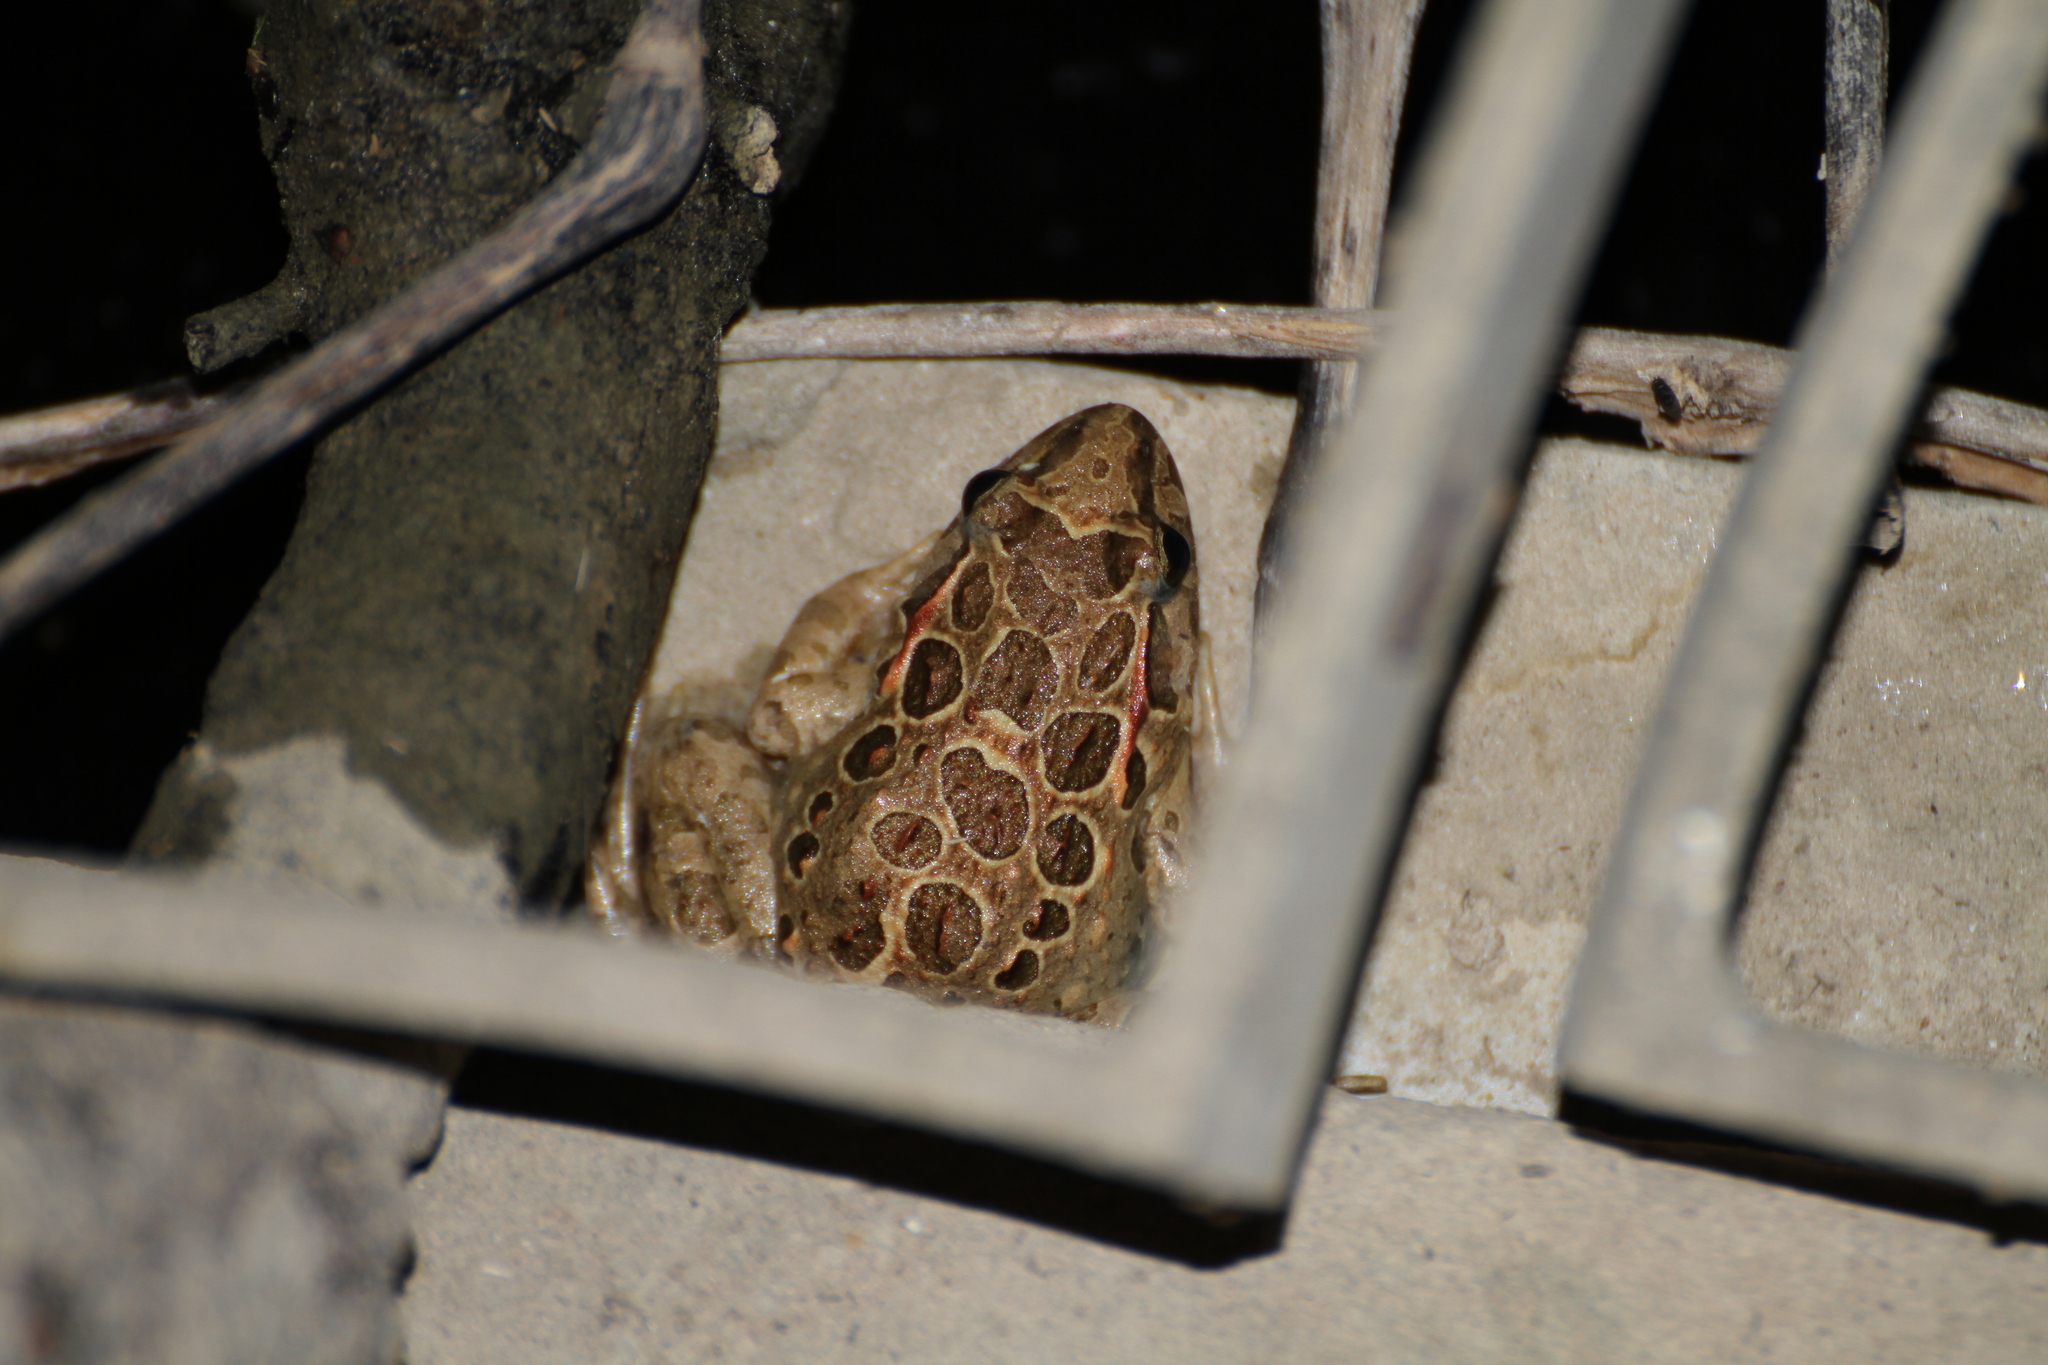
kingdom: Animalia
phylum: Chordata
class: Amphibia
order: Anura
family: Alytidae
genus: Discoglossus
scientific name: Discoglossus pictus
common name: Painted frog
